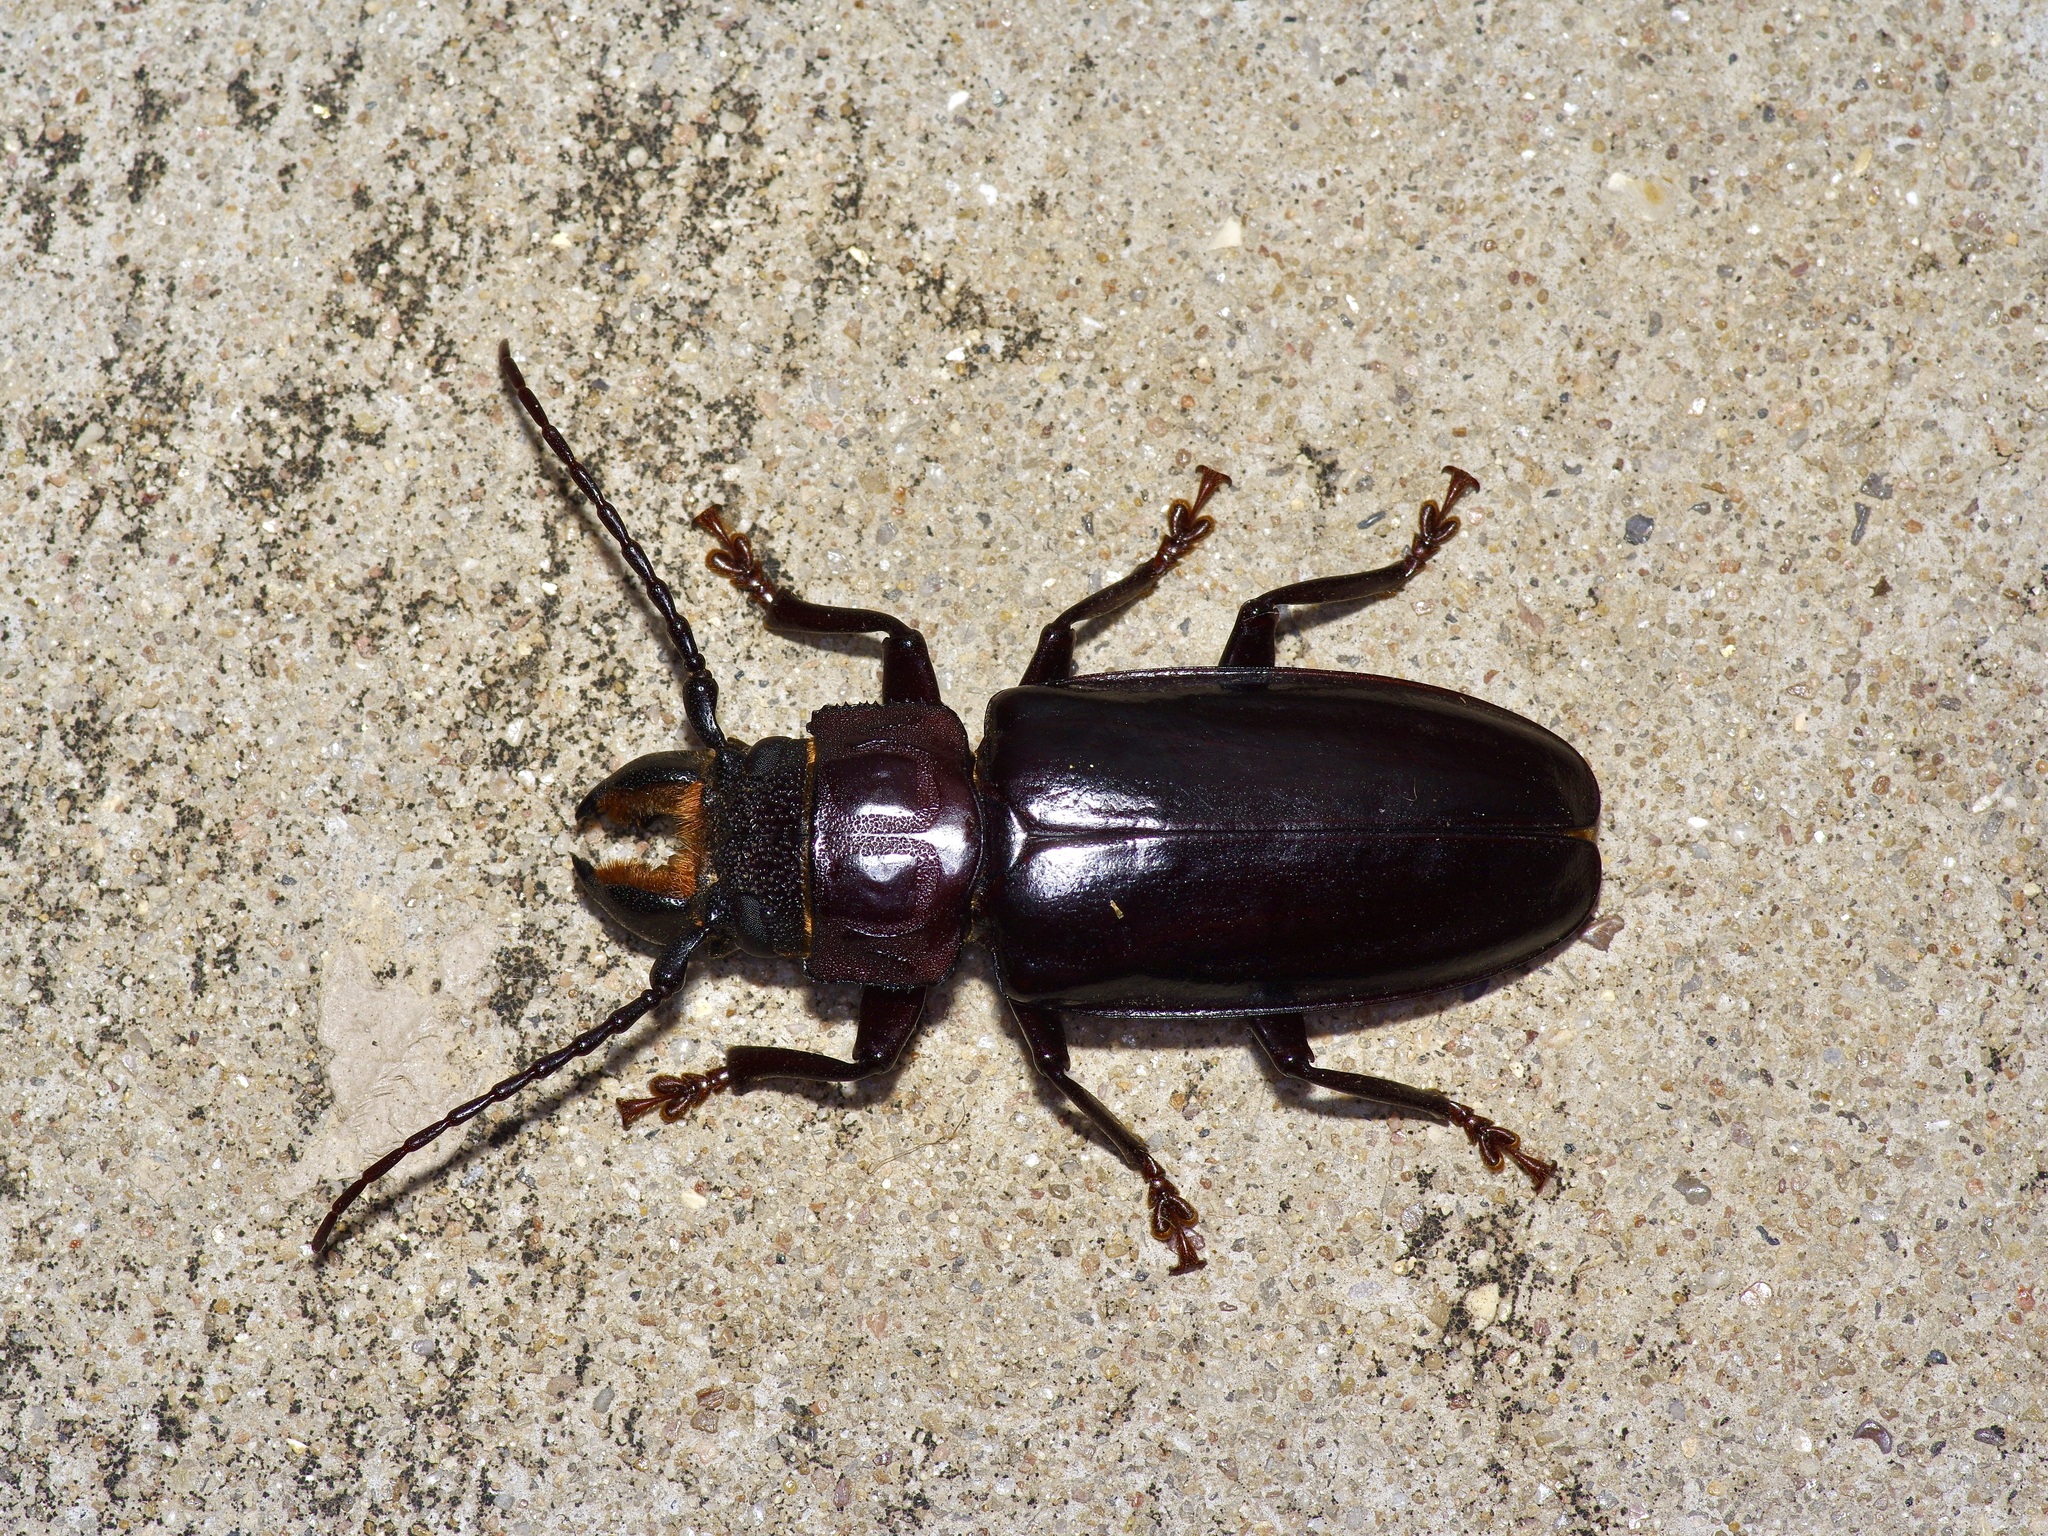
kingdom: Animalia
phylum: Arthropoda
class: Insecta
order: Coleoptera
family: Cerambycidae
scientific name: Cerambycidae
